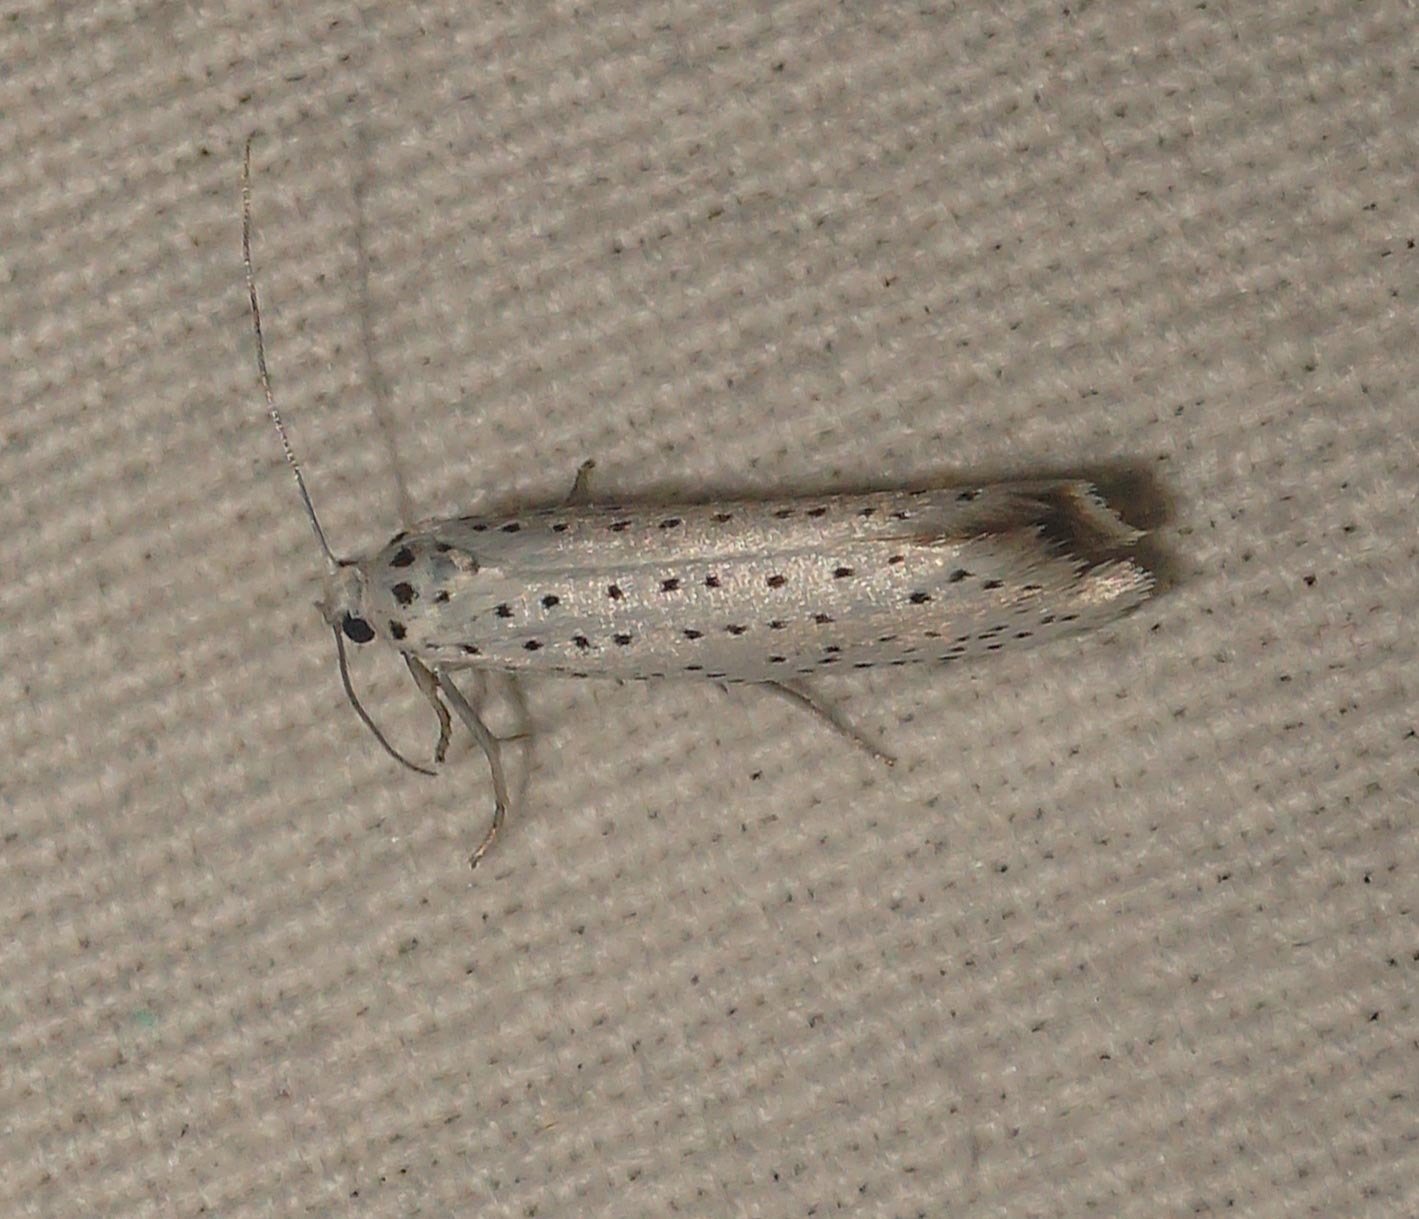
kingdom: Animalia
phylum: Arthropoda
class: Insecta
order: Lepidoptera
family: Yponomeutidae
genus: Yponomeuta
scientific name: Yponomeuta evonymella
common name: Bird-cherry ermine
